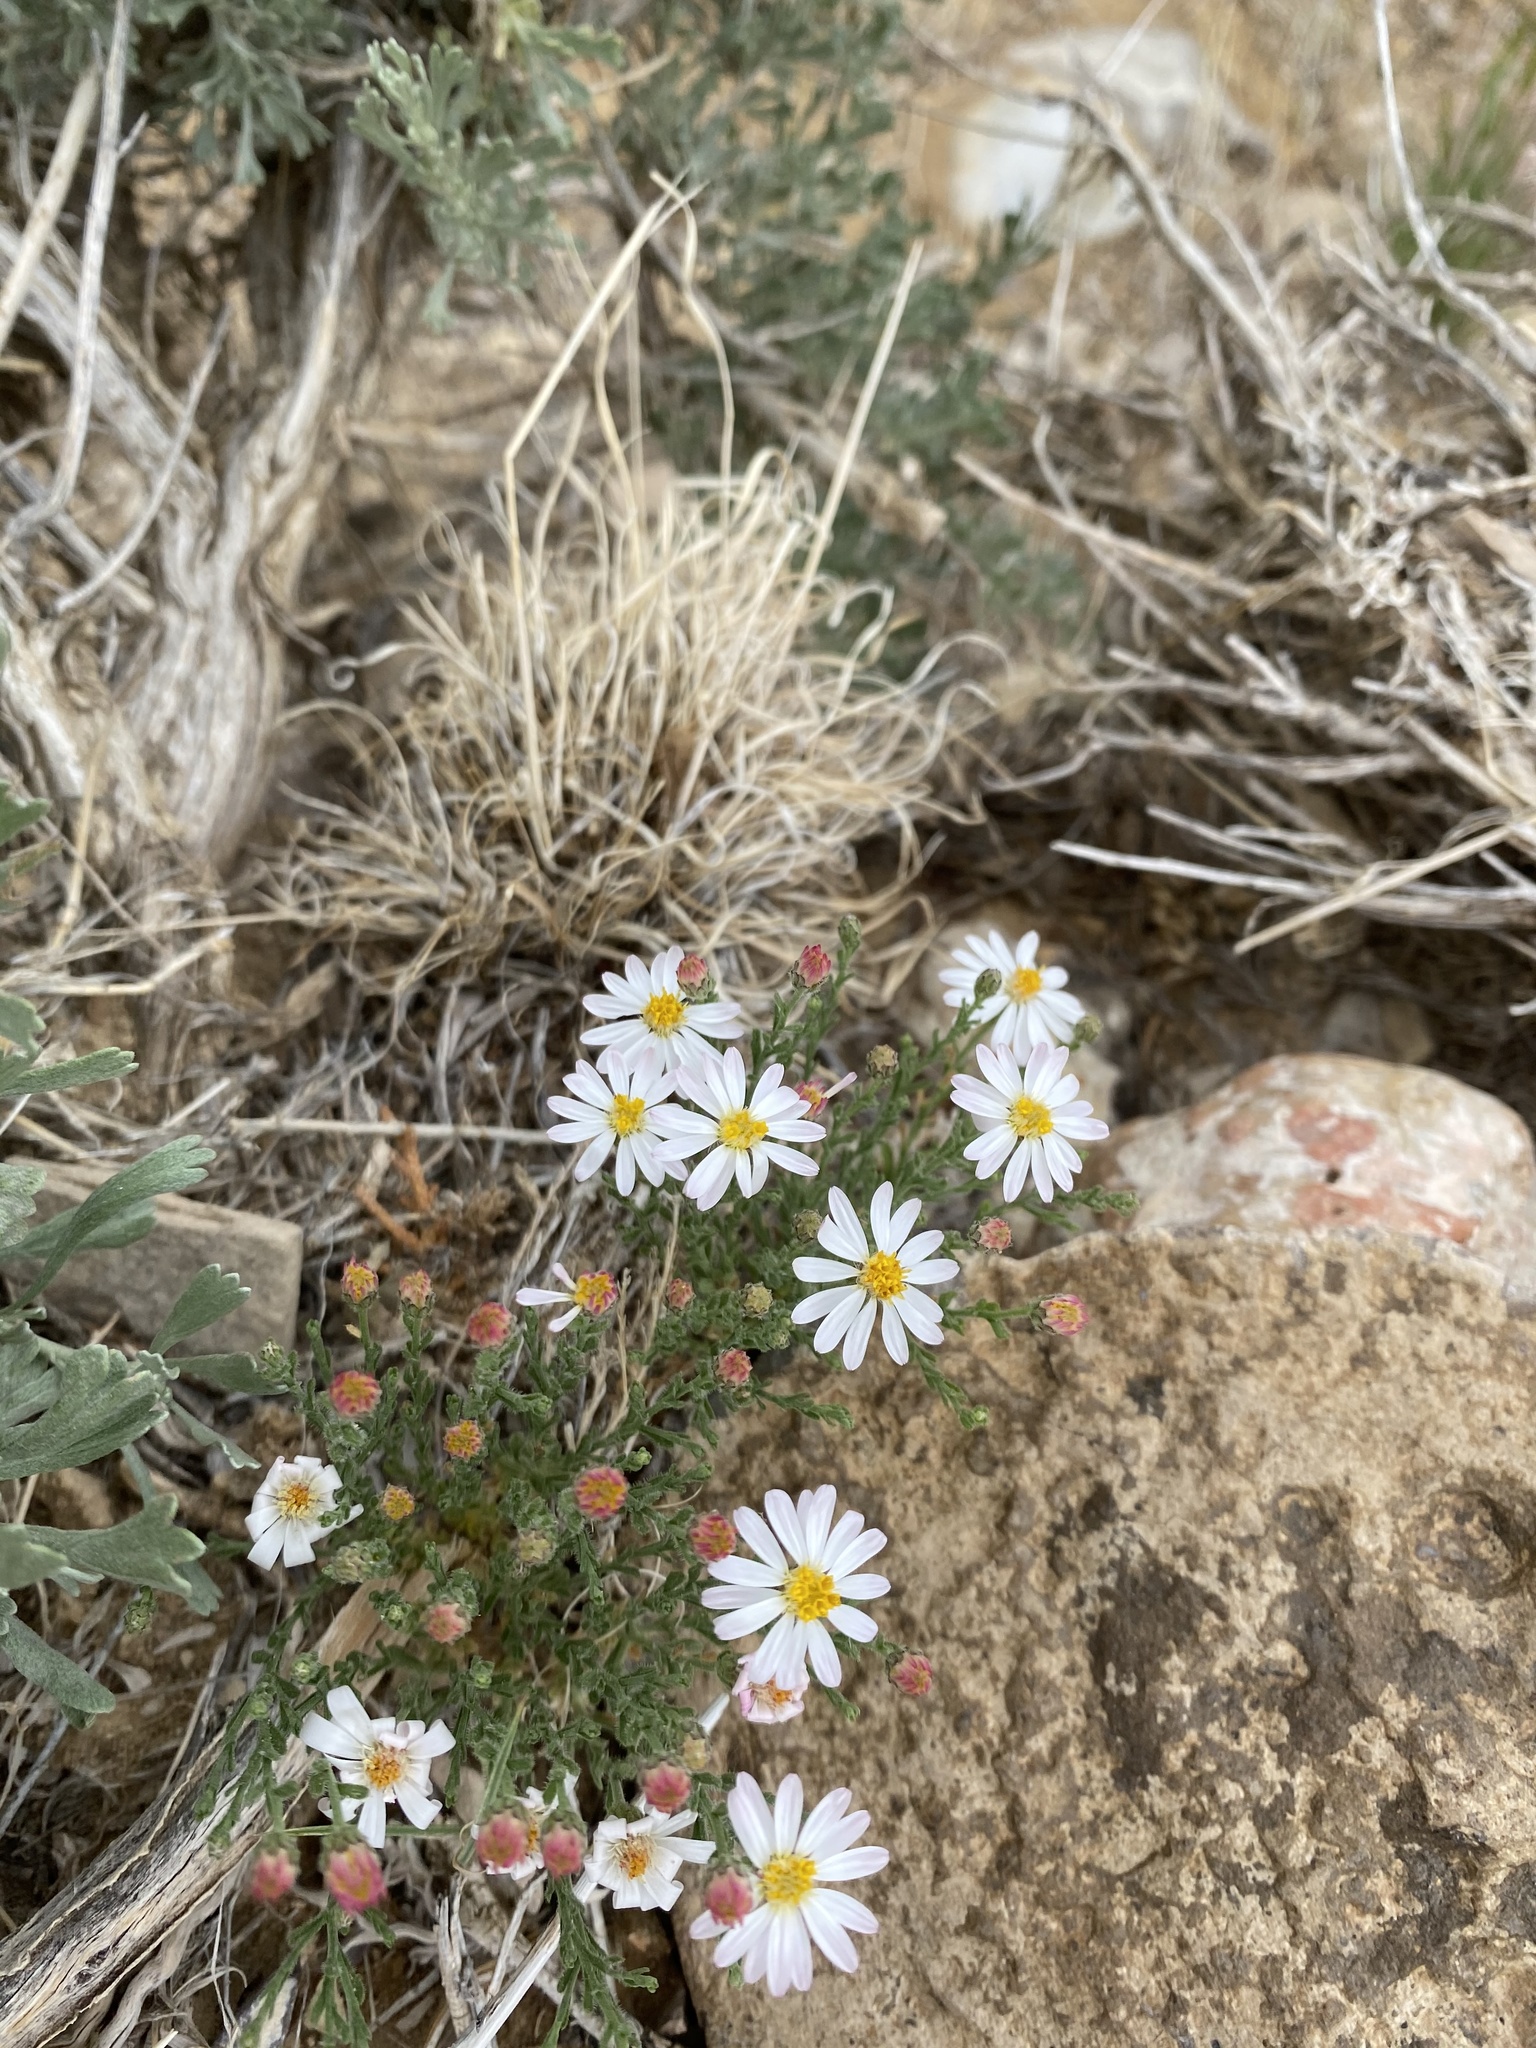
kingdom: Plantae
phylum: Tracheophyta
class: Magnoliopsida
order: Asterales
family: Asteraceae
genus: Chaetopappa
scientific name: Chaetopappa ericoides
